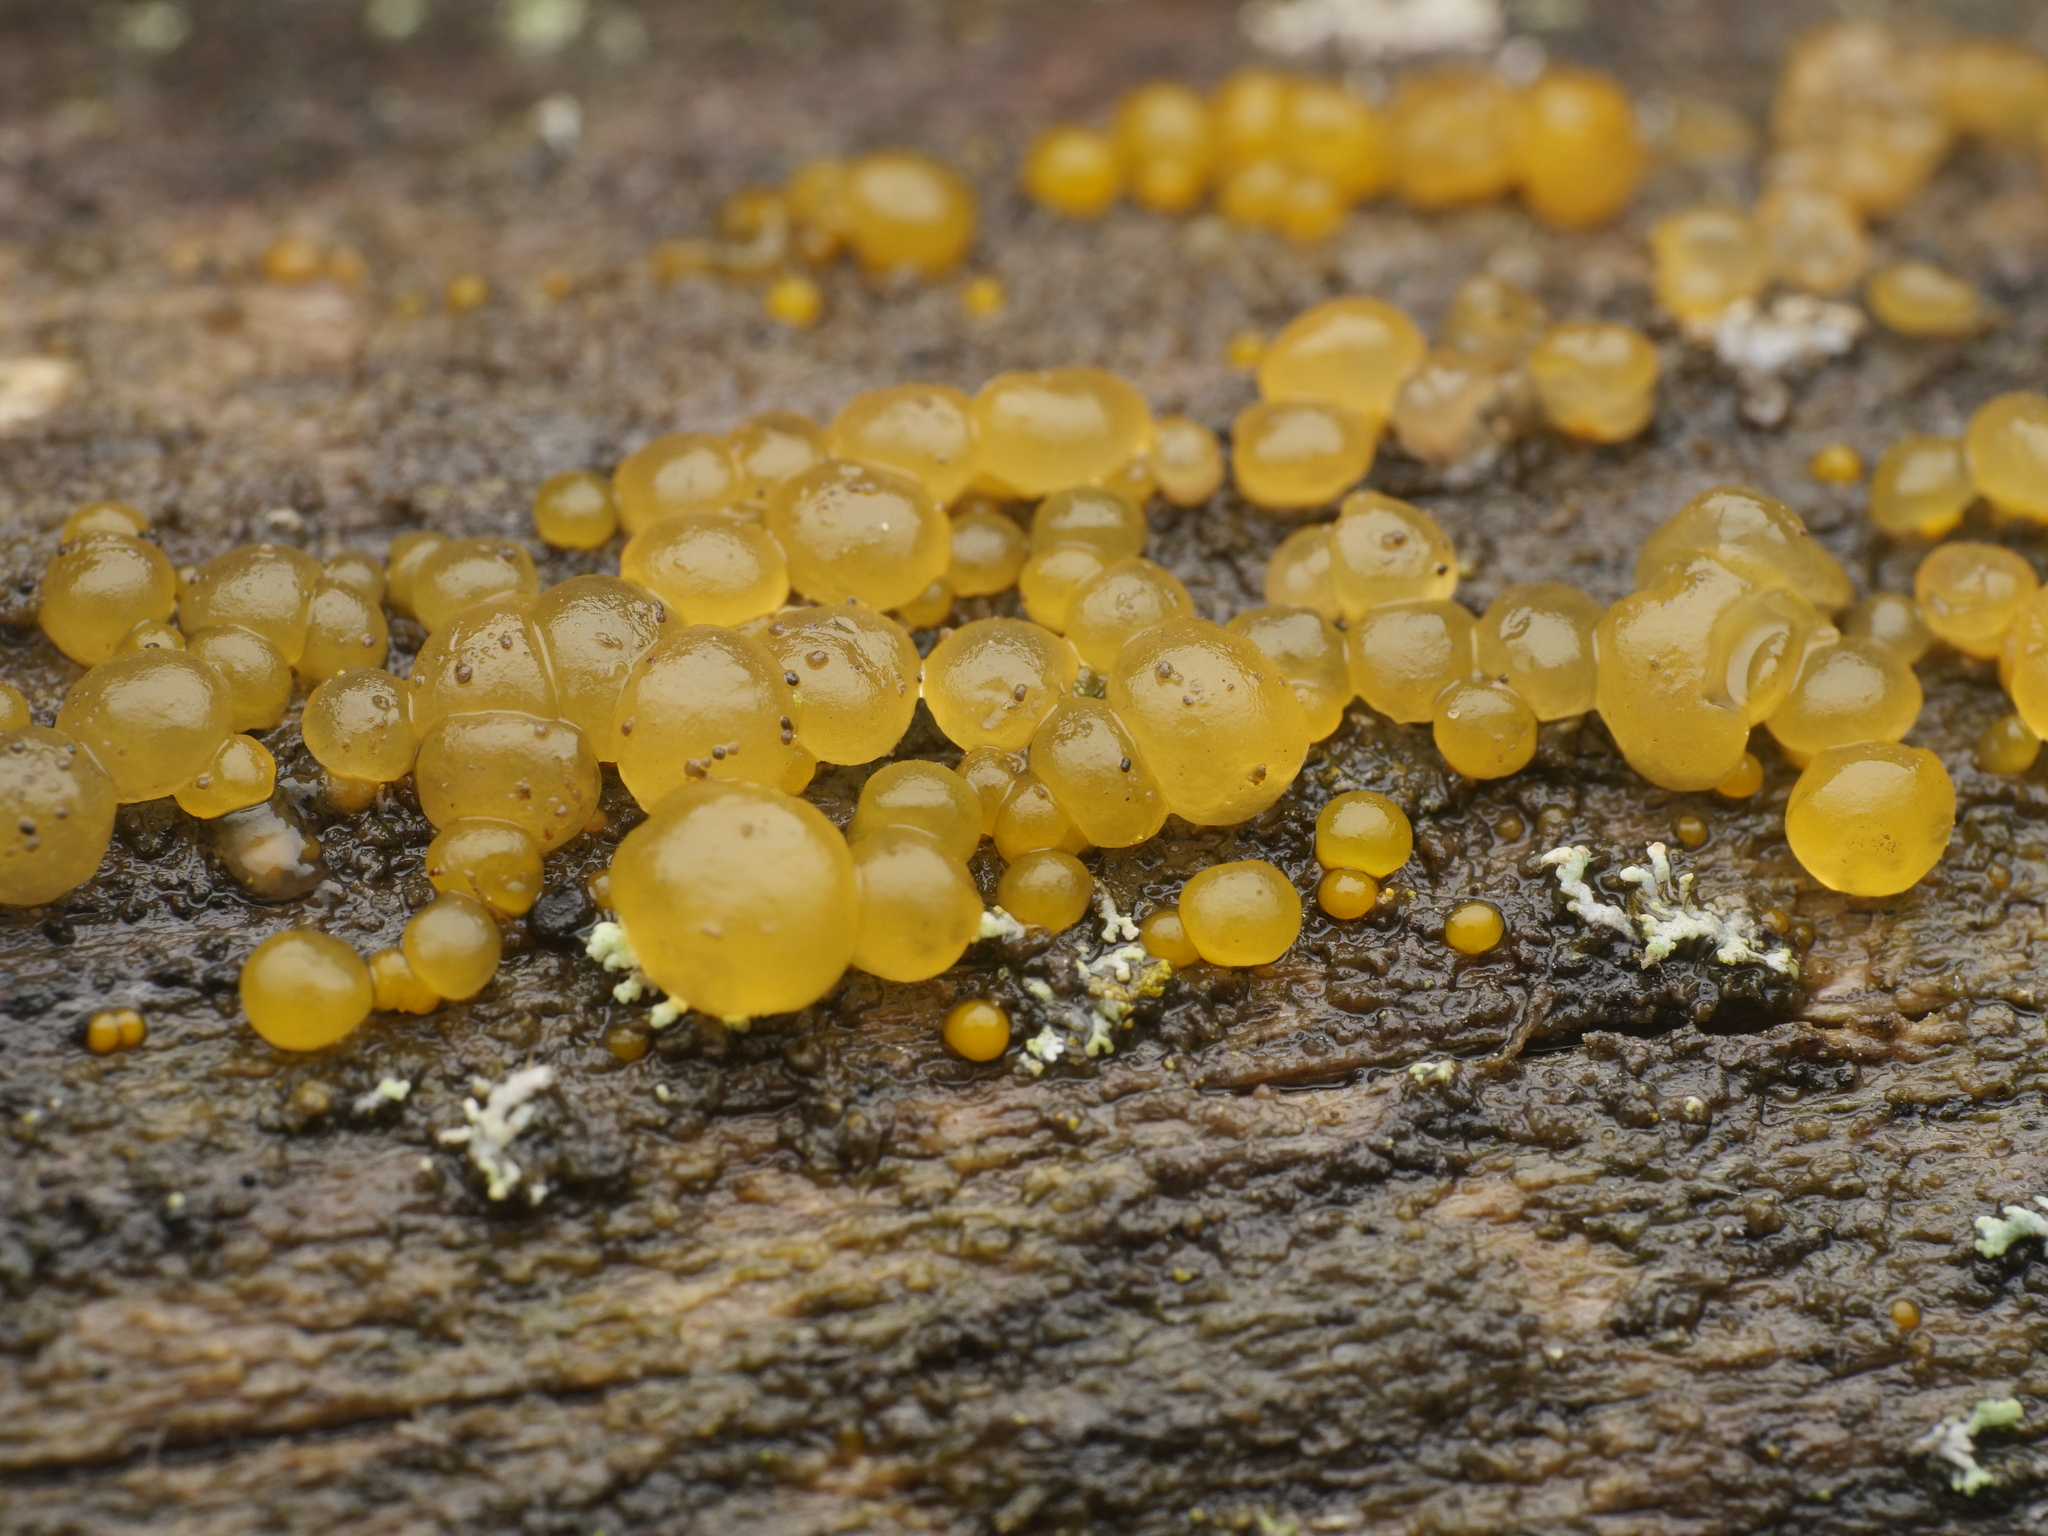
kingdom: Fungi
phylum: Basidiomycota
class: Dacrymycetes
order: Dacrymycetales
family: Dacrymycetaceae
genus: Dacrymyces
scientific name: Dacrymyces stillatus
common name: Common jelly spot
